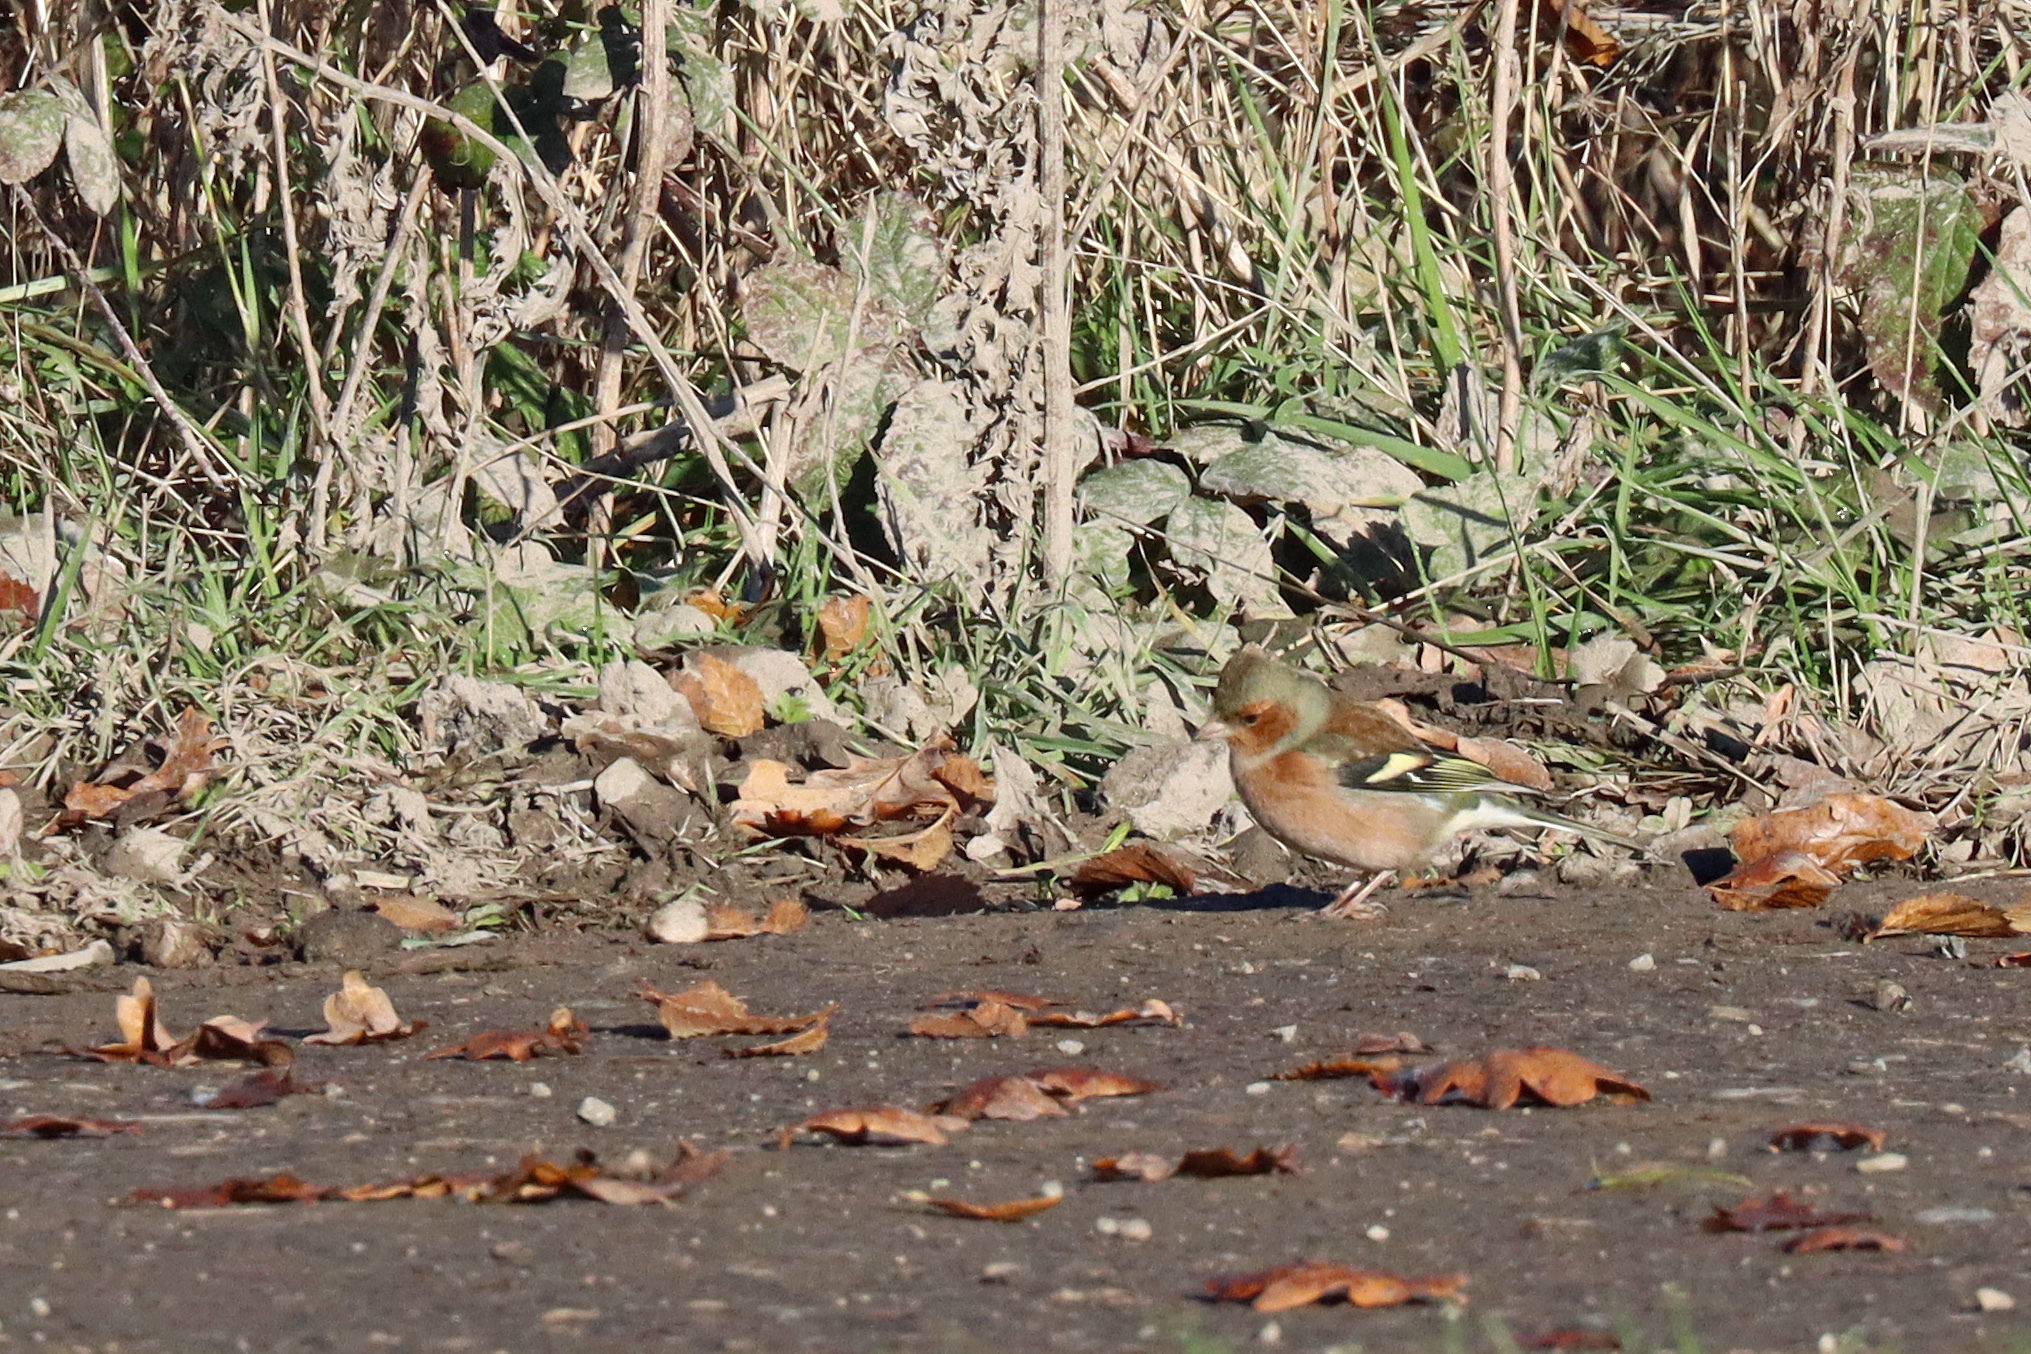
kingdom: Animalia
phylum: Chordata
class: Aves
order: Passeriformes
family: Fringillidae
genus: Fringilla
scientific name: Fringilla coelebs
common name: Common chaffinch
